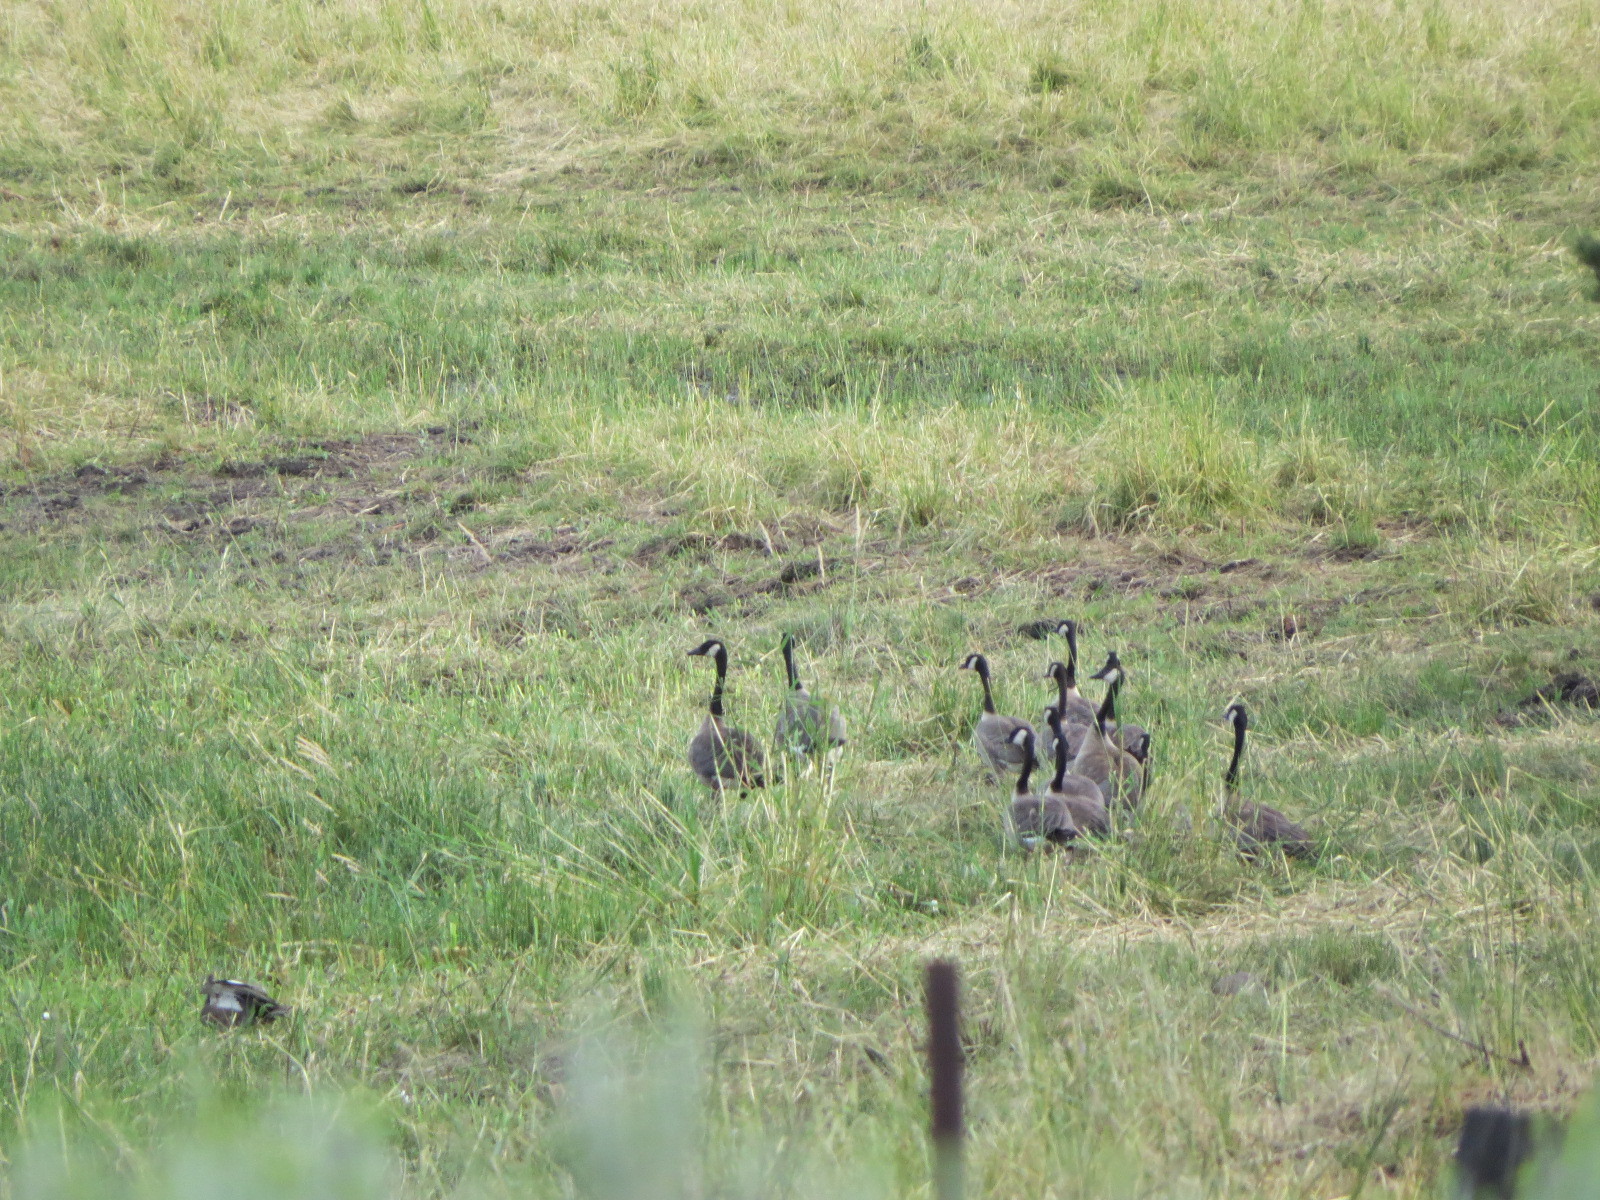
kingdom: Animalia
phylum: Chordata
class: Aves
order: Anseriformes
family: Anatidae
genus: Branta
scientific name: Branta canadensis
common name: Canada goose
